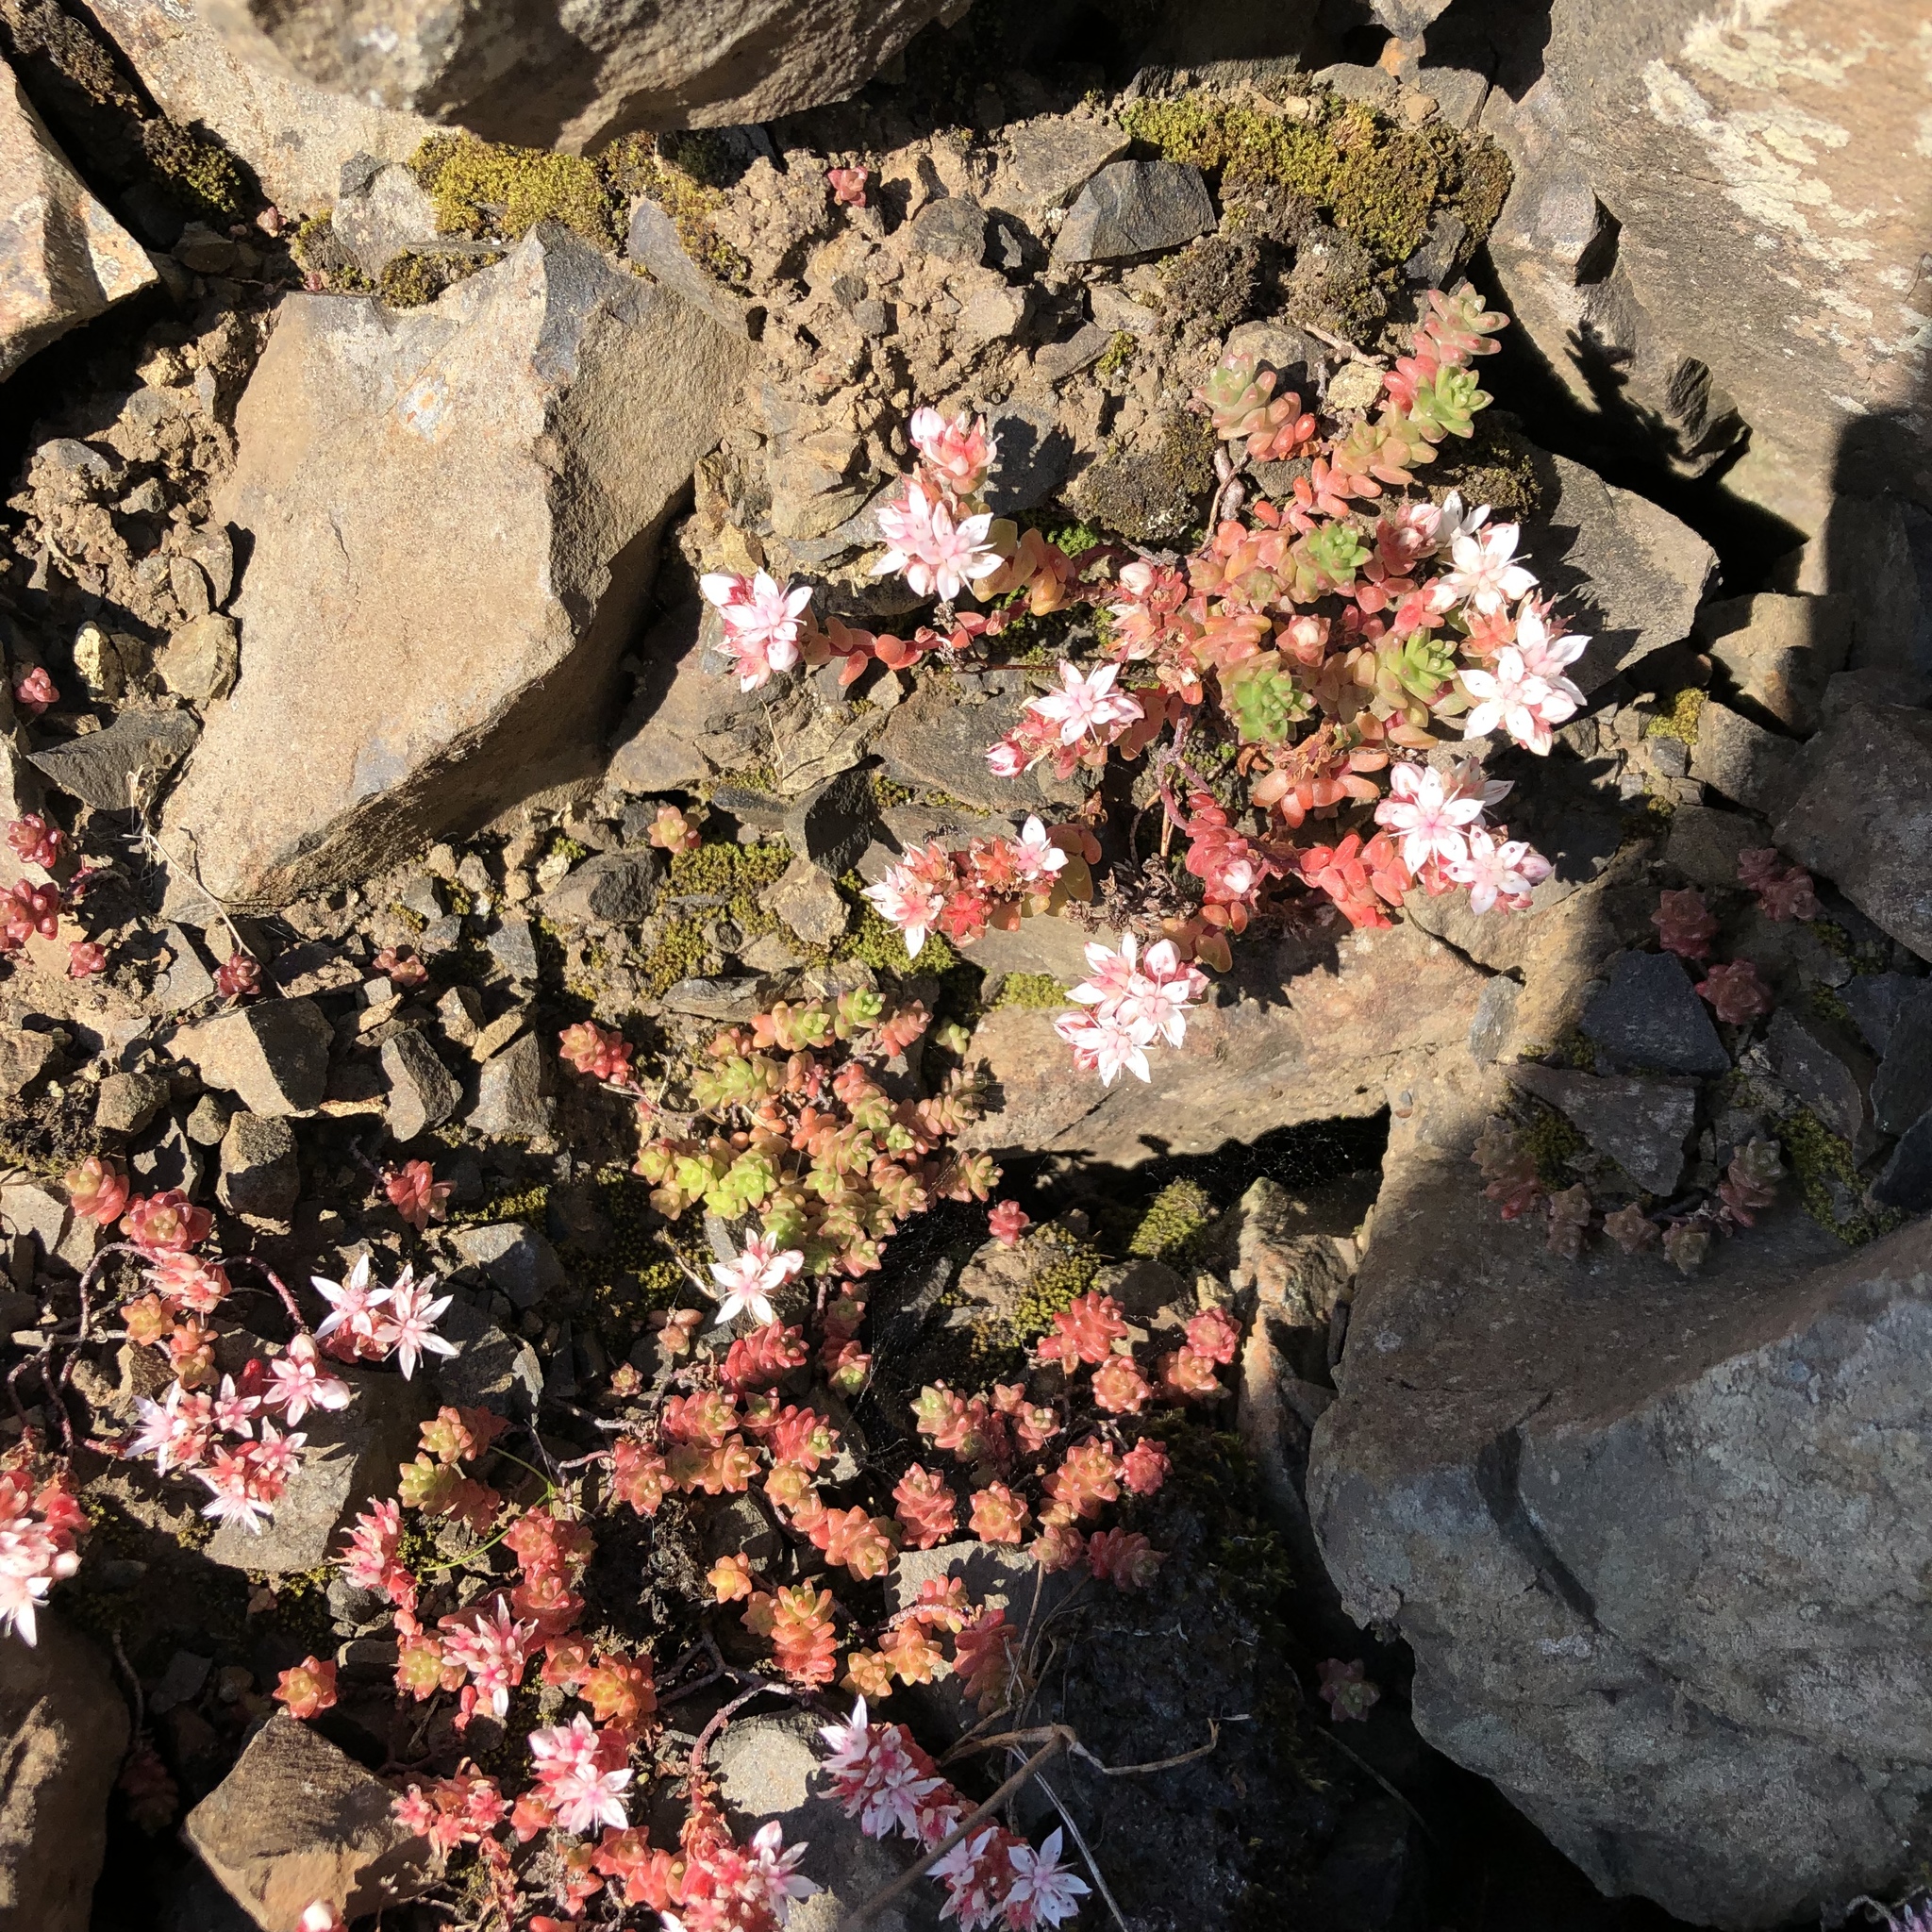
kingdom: Plantae
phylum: Tracheophyta
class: Magnoliopsida
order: Saxifragales
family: Crassulaceae
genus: Sedum
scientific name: Sedum anglicum
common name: English stonecrop
